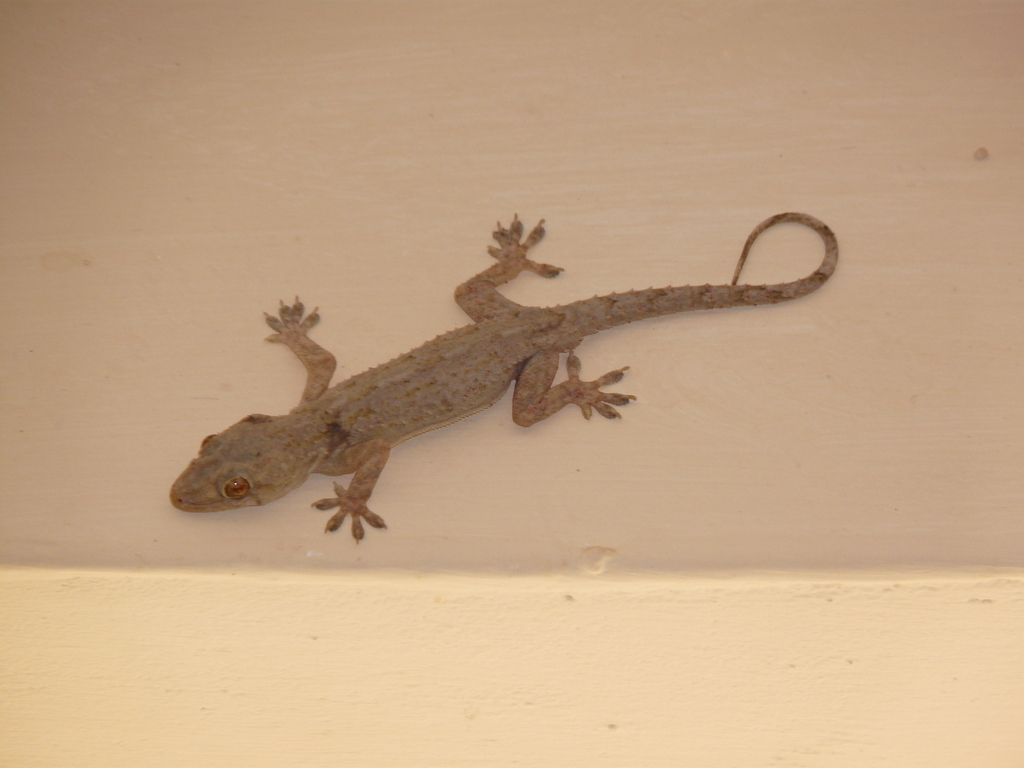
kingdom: Animalia
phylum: Chordata
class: Squamata
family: Gekkonidae
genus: Hemidactylus
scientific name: Hemidactylus mabouia
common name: House gecko
